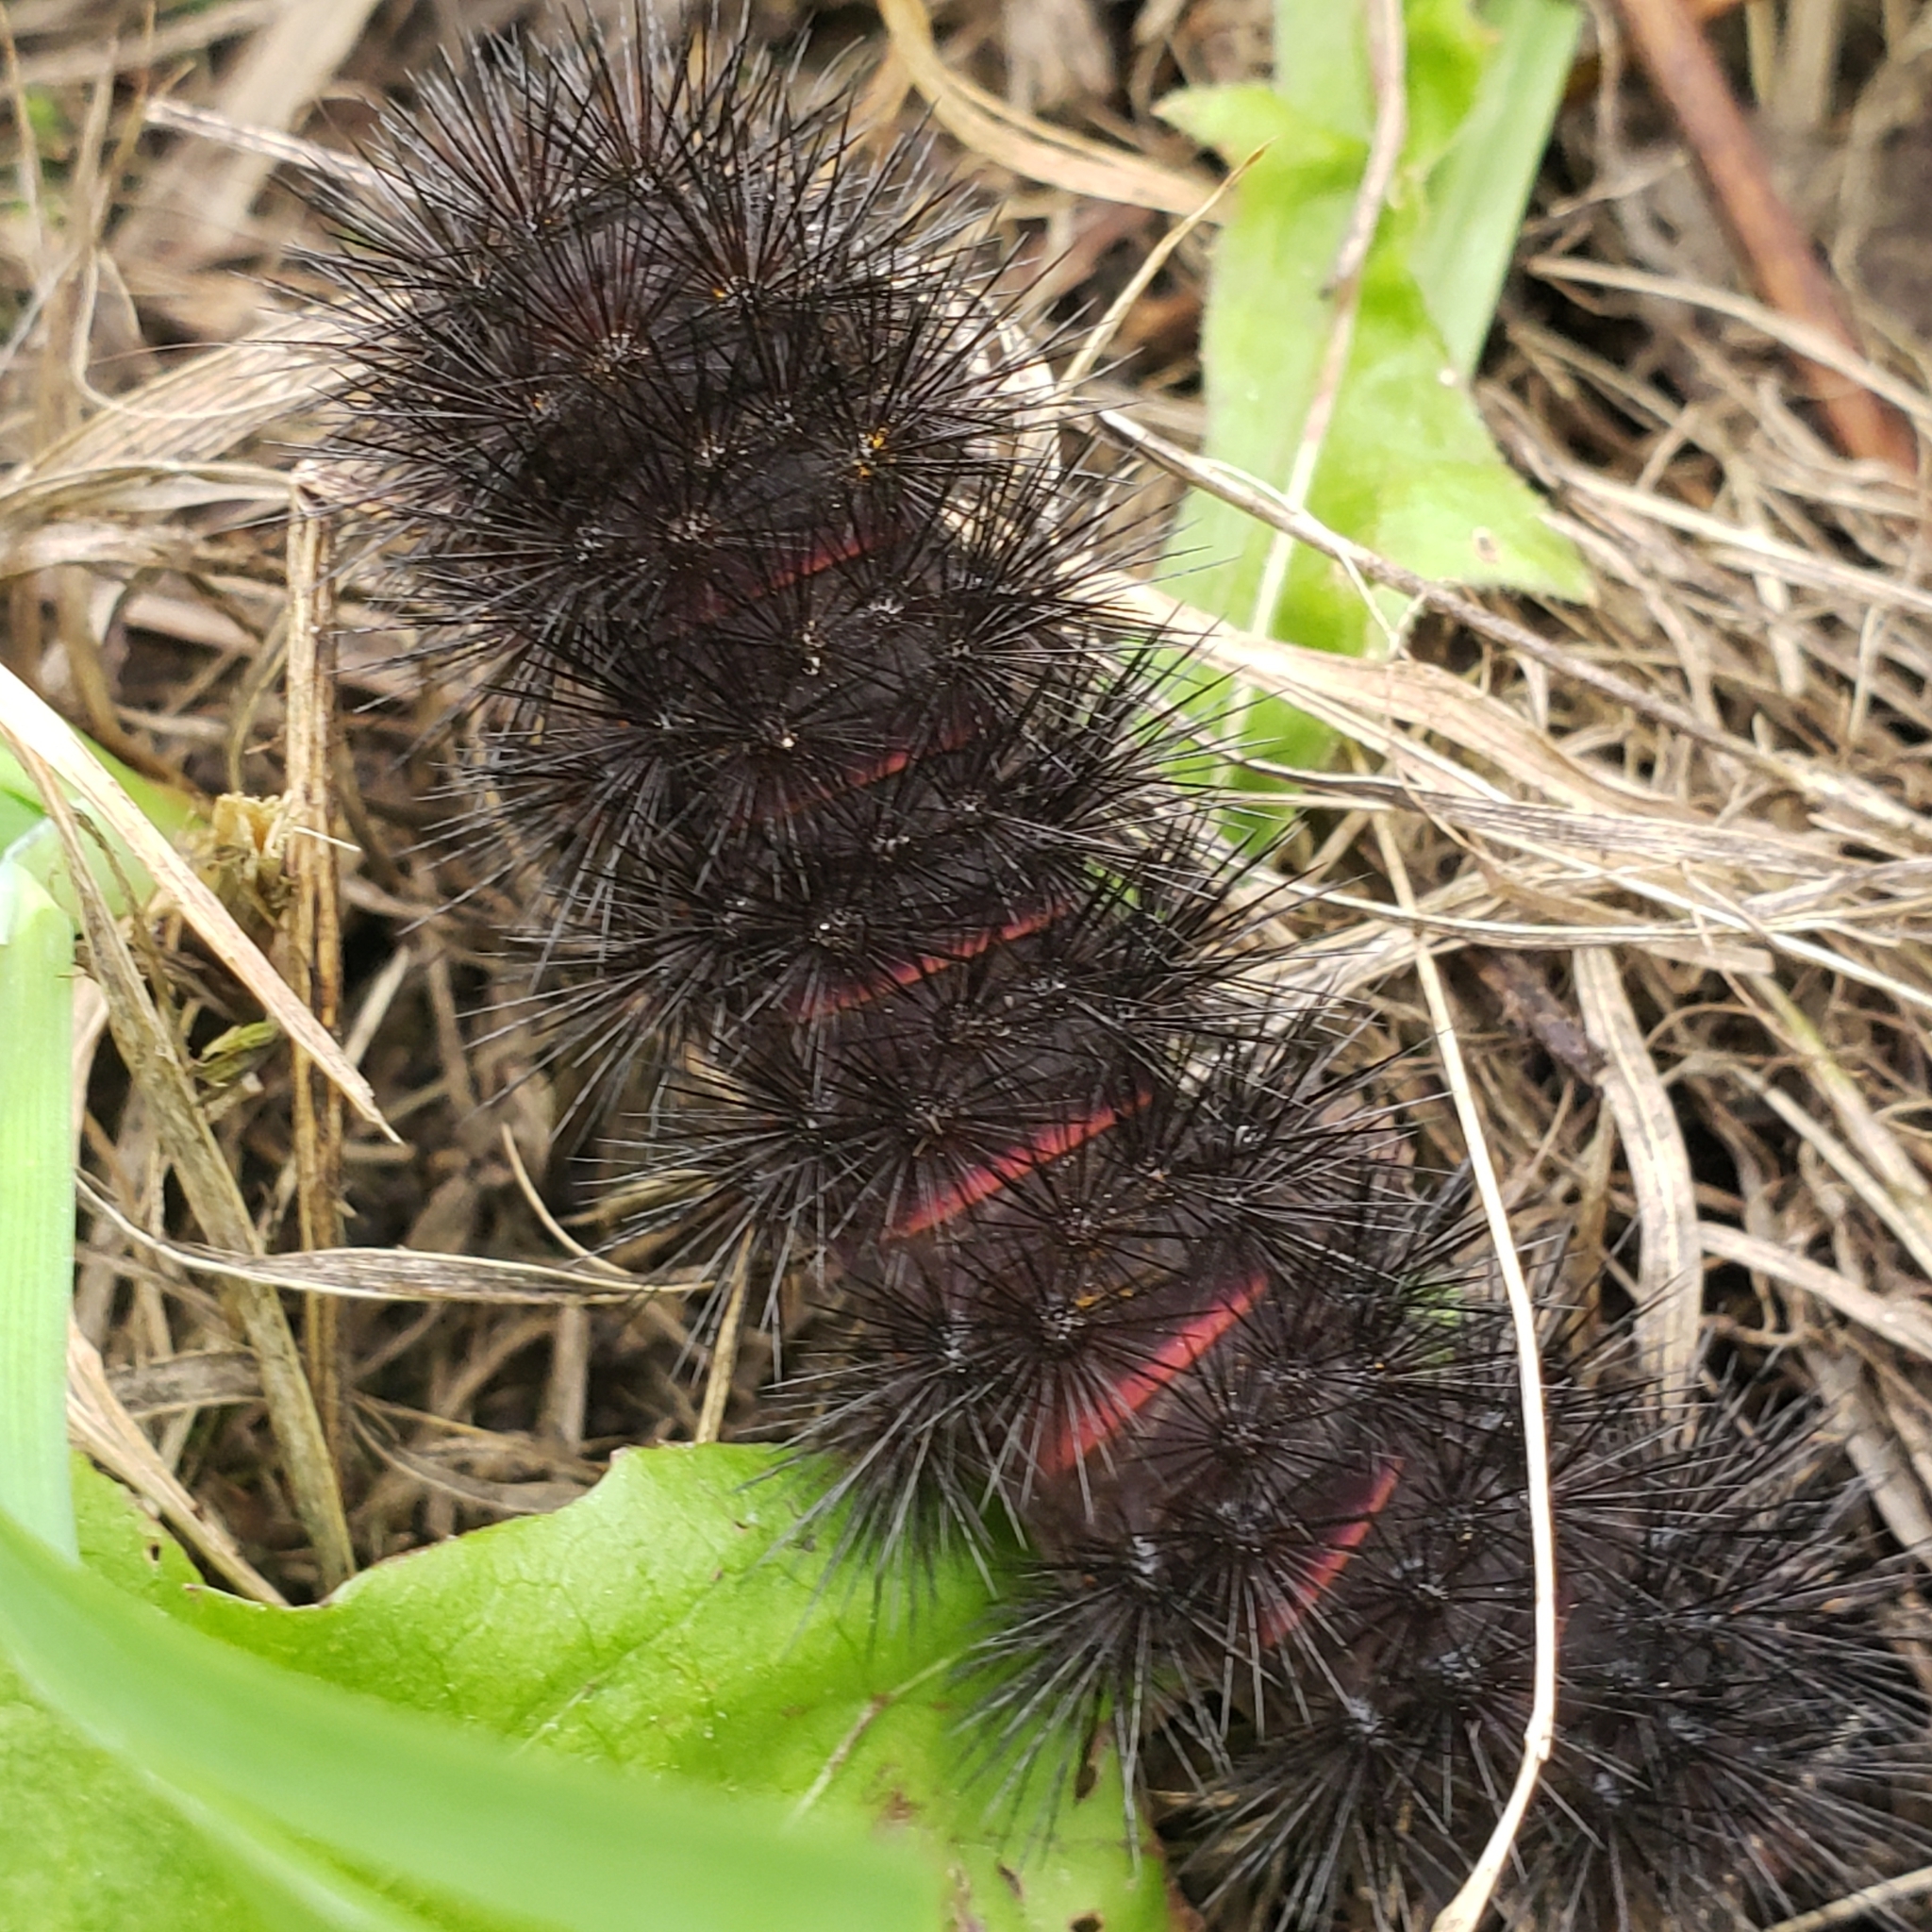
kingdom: Animalia
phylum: Arthropoda
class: Insecta
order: Lepidoptera
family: Erebidae
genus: Hypercompe
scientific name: Hypercompe scribonia
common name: Giant leopard moth
